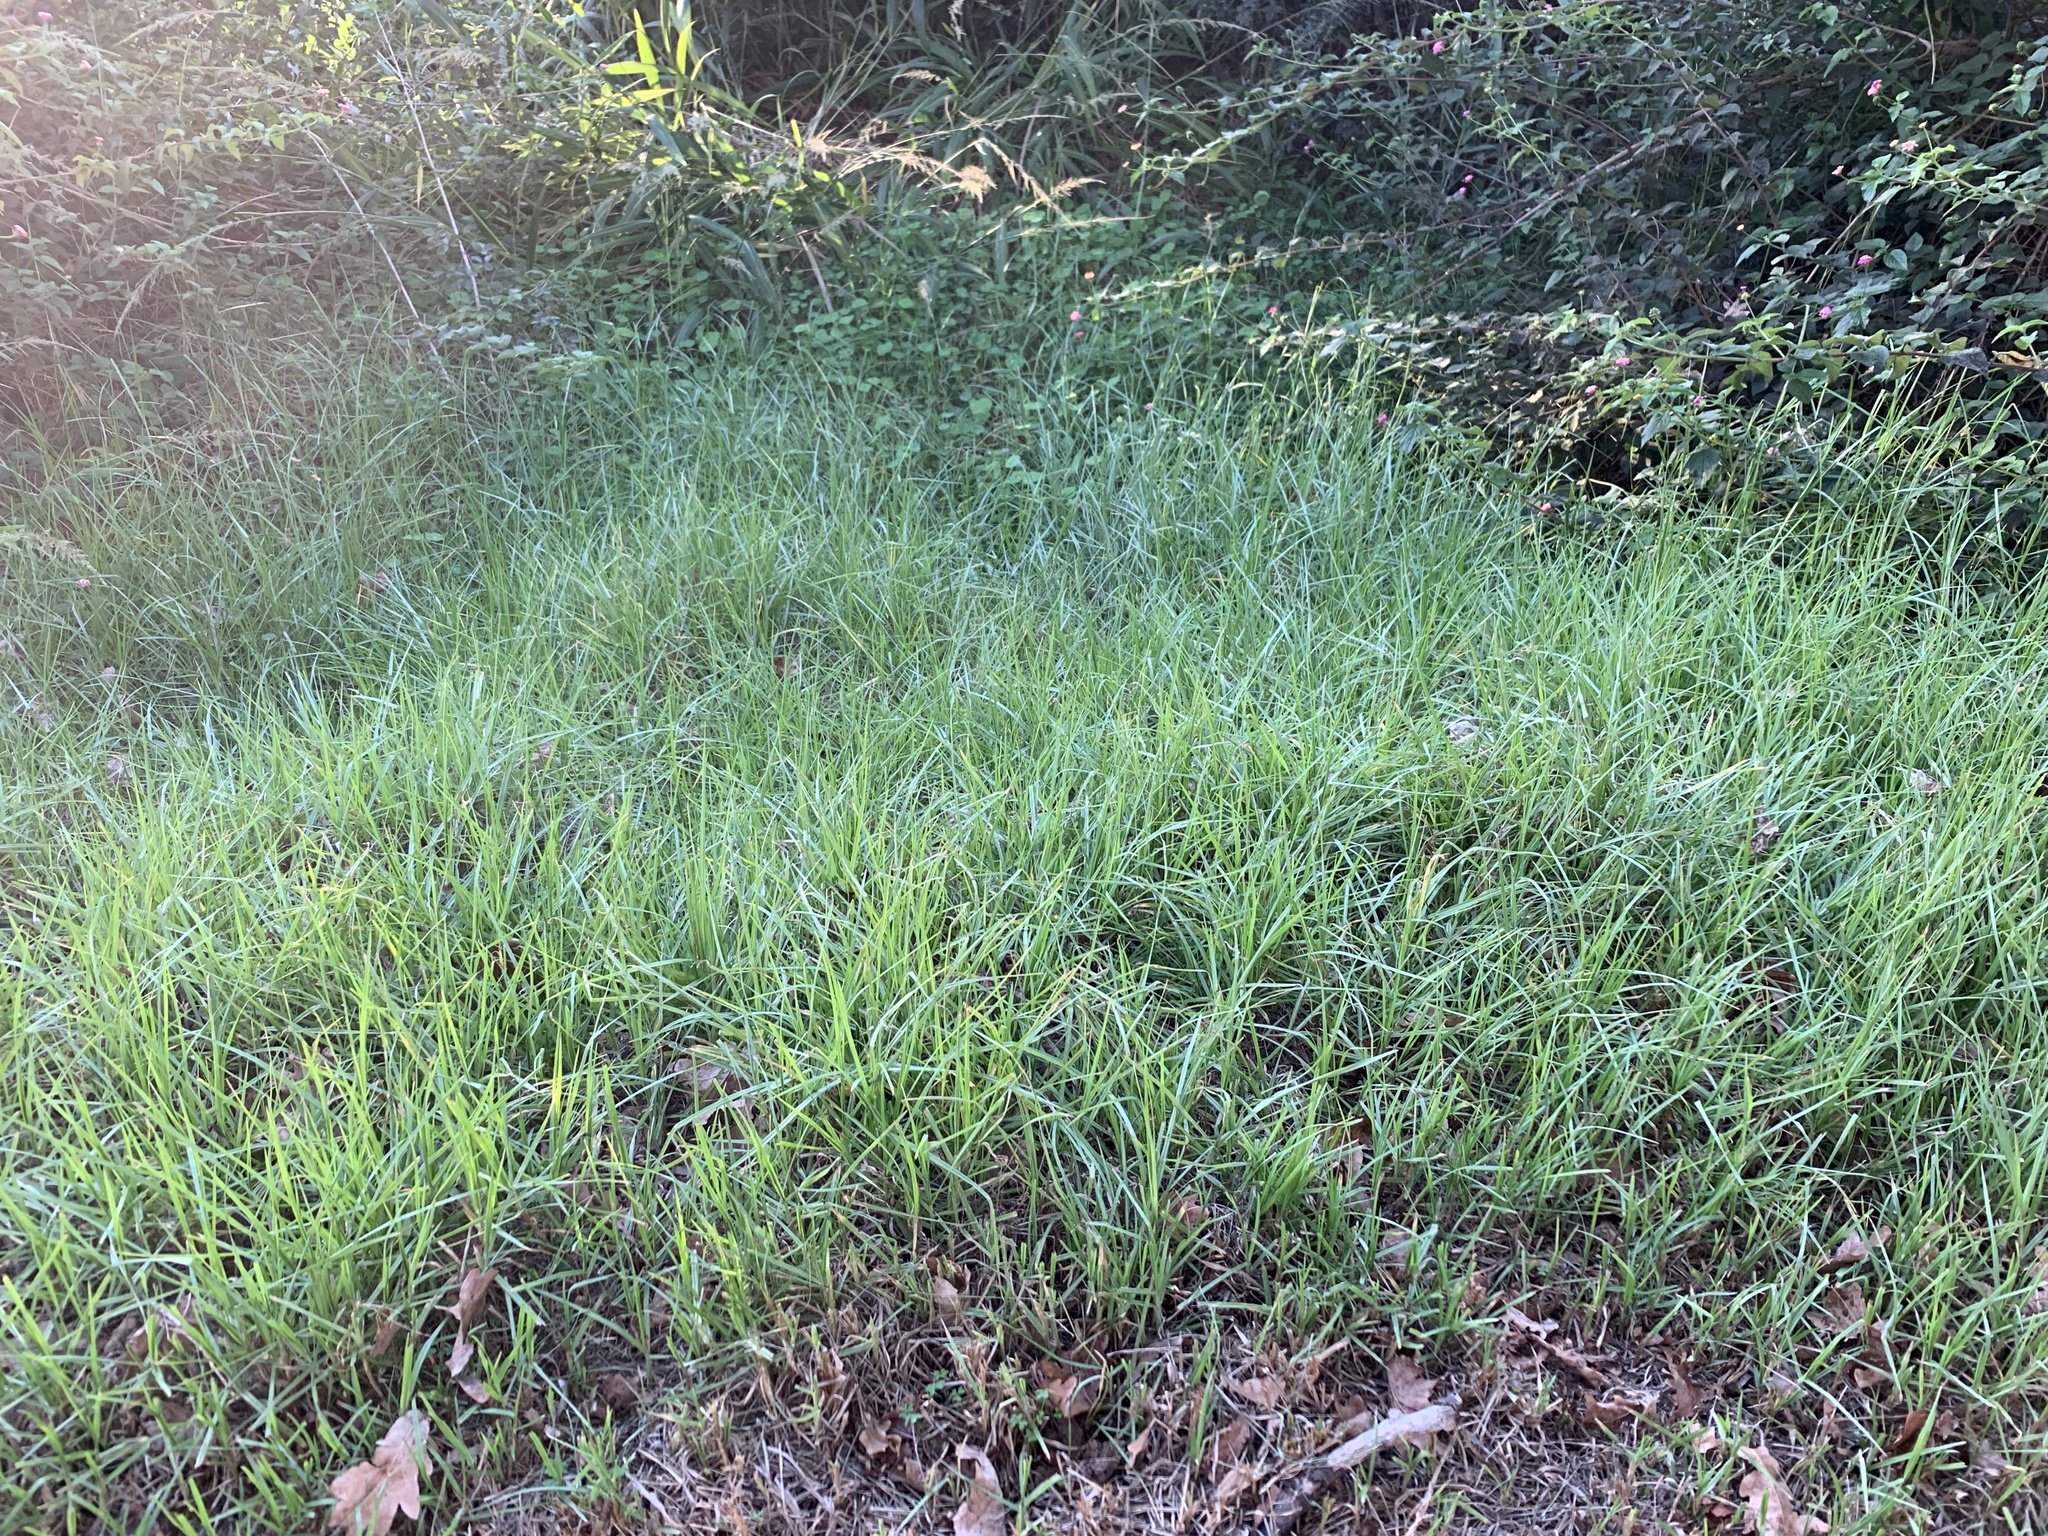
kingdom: Plantae
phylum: Tracheophyta
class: Liliopsida
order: Poales
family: Poaceae
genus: Cenchrus
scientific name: Cenchrus clandestinus
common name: Kikuyugrass
